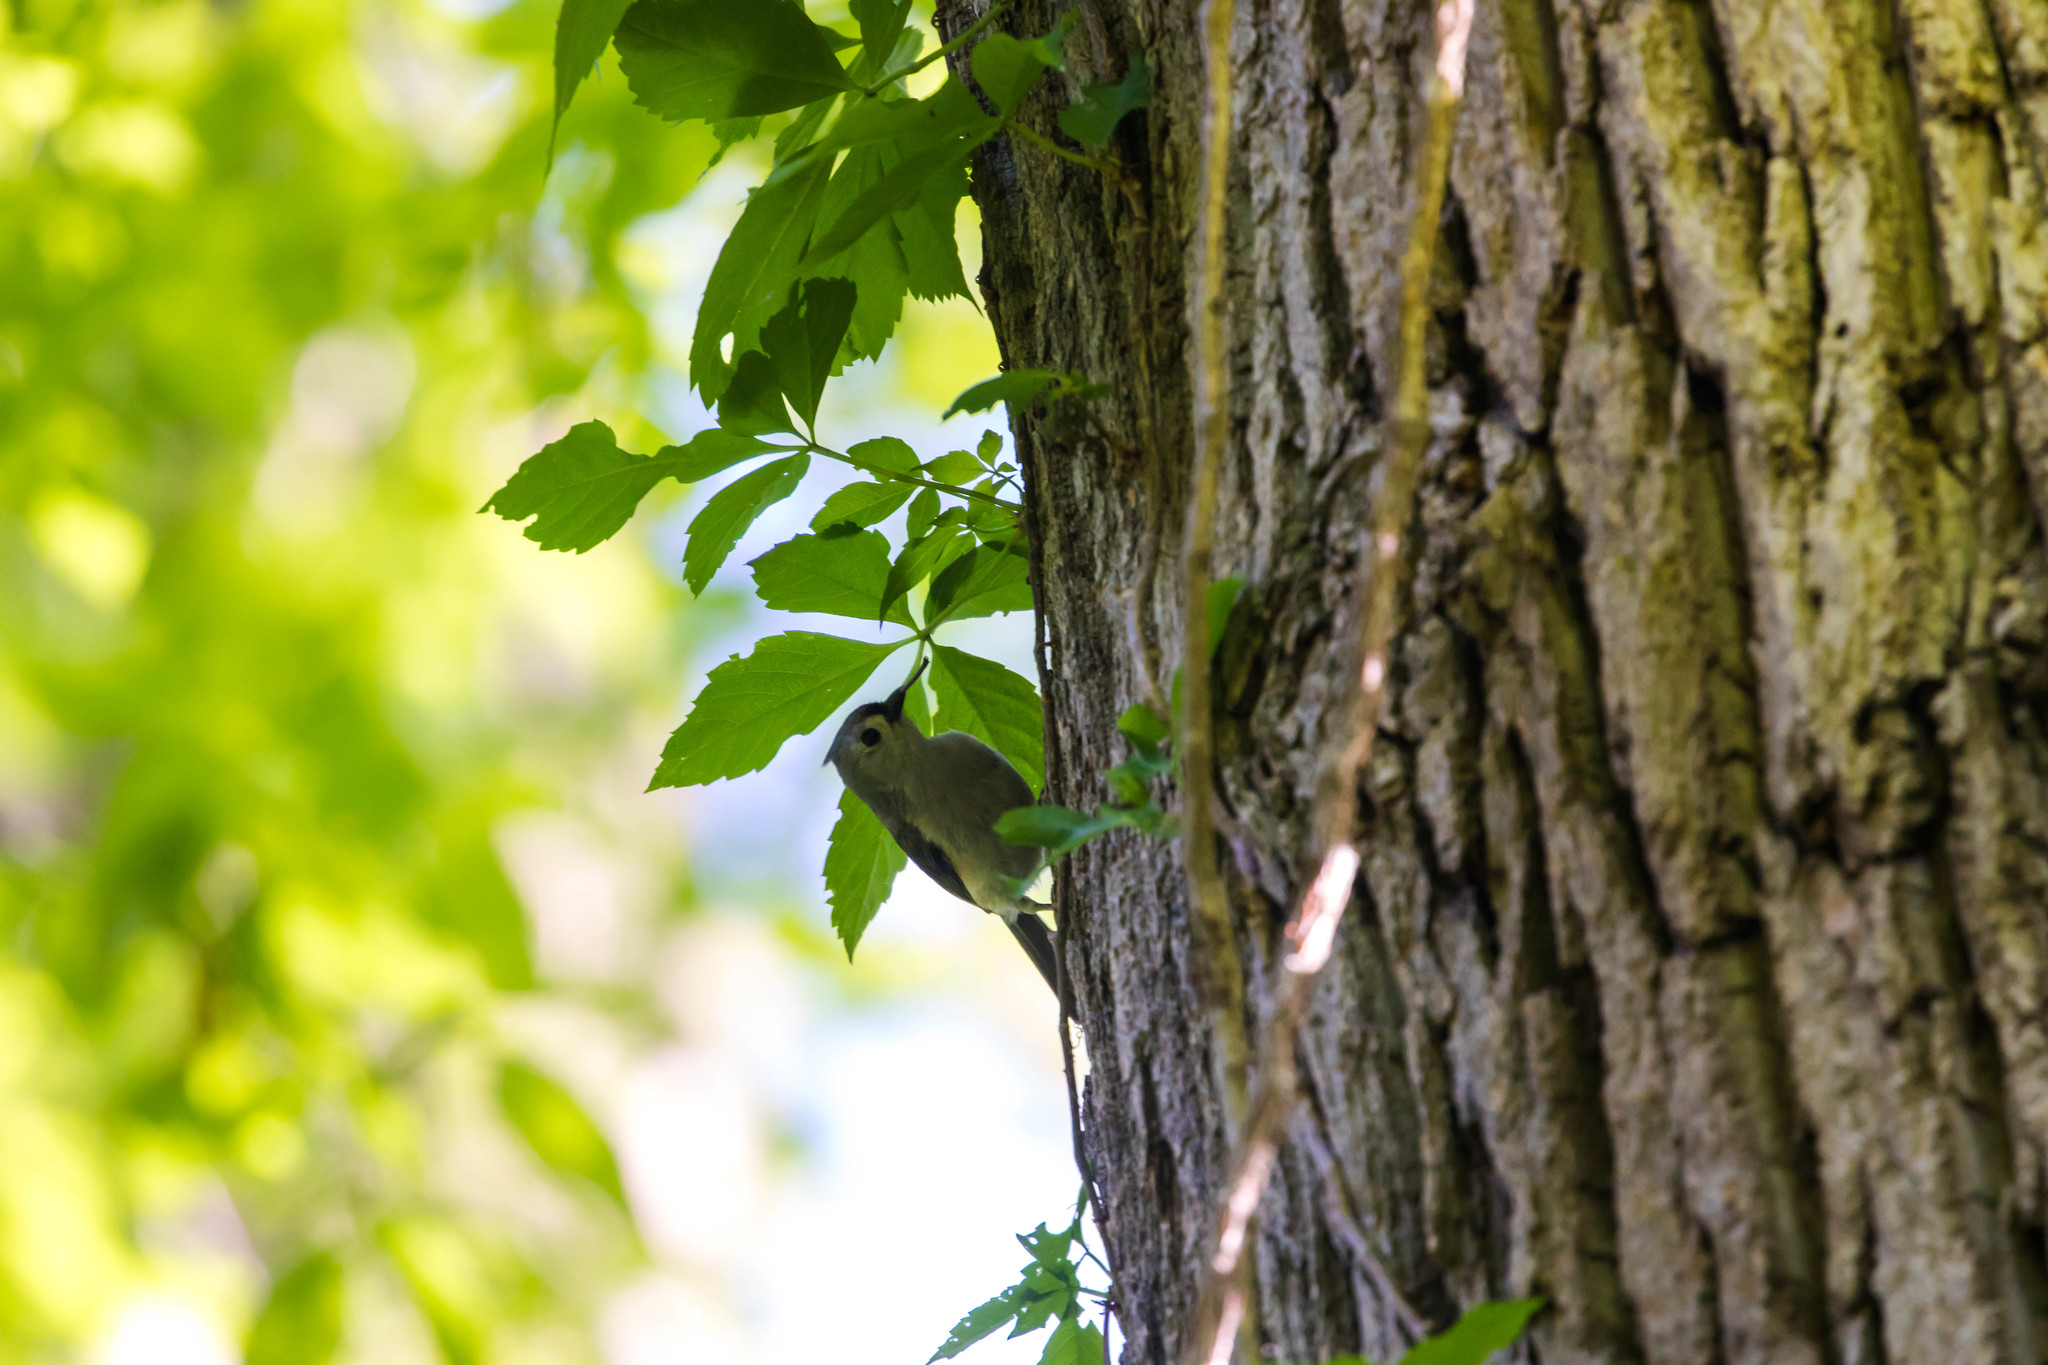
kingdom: Animalia
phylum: Chordata
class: Aves
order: Passeriformes
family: Paridae
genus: Baeolophus
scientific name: Baeolophus bicolor
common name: Tufted titmouse
